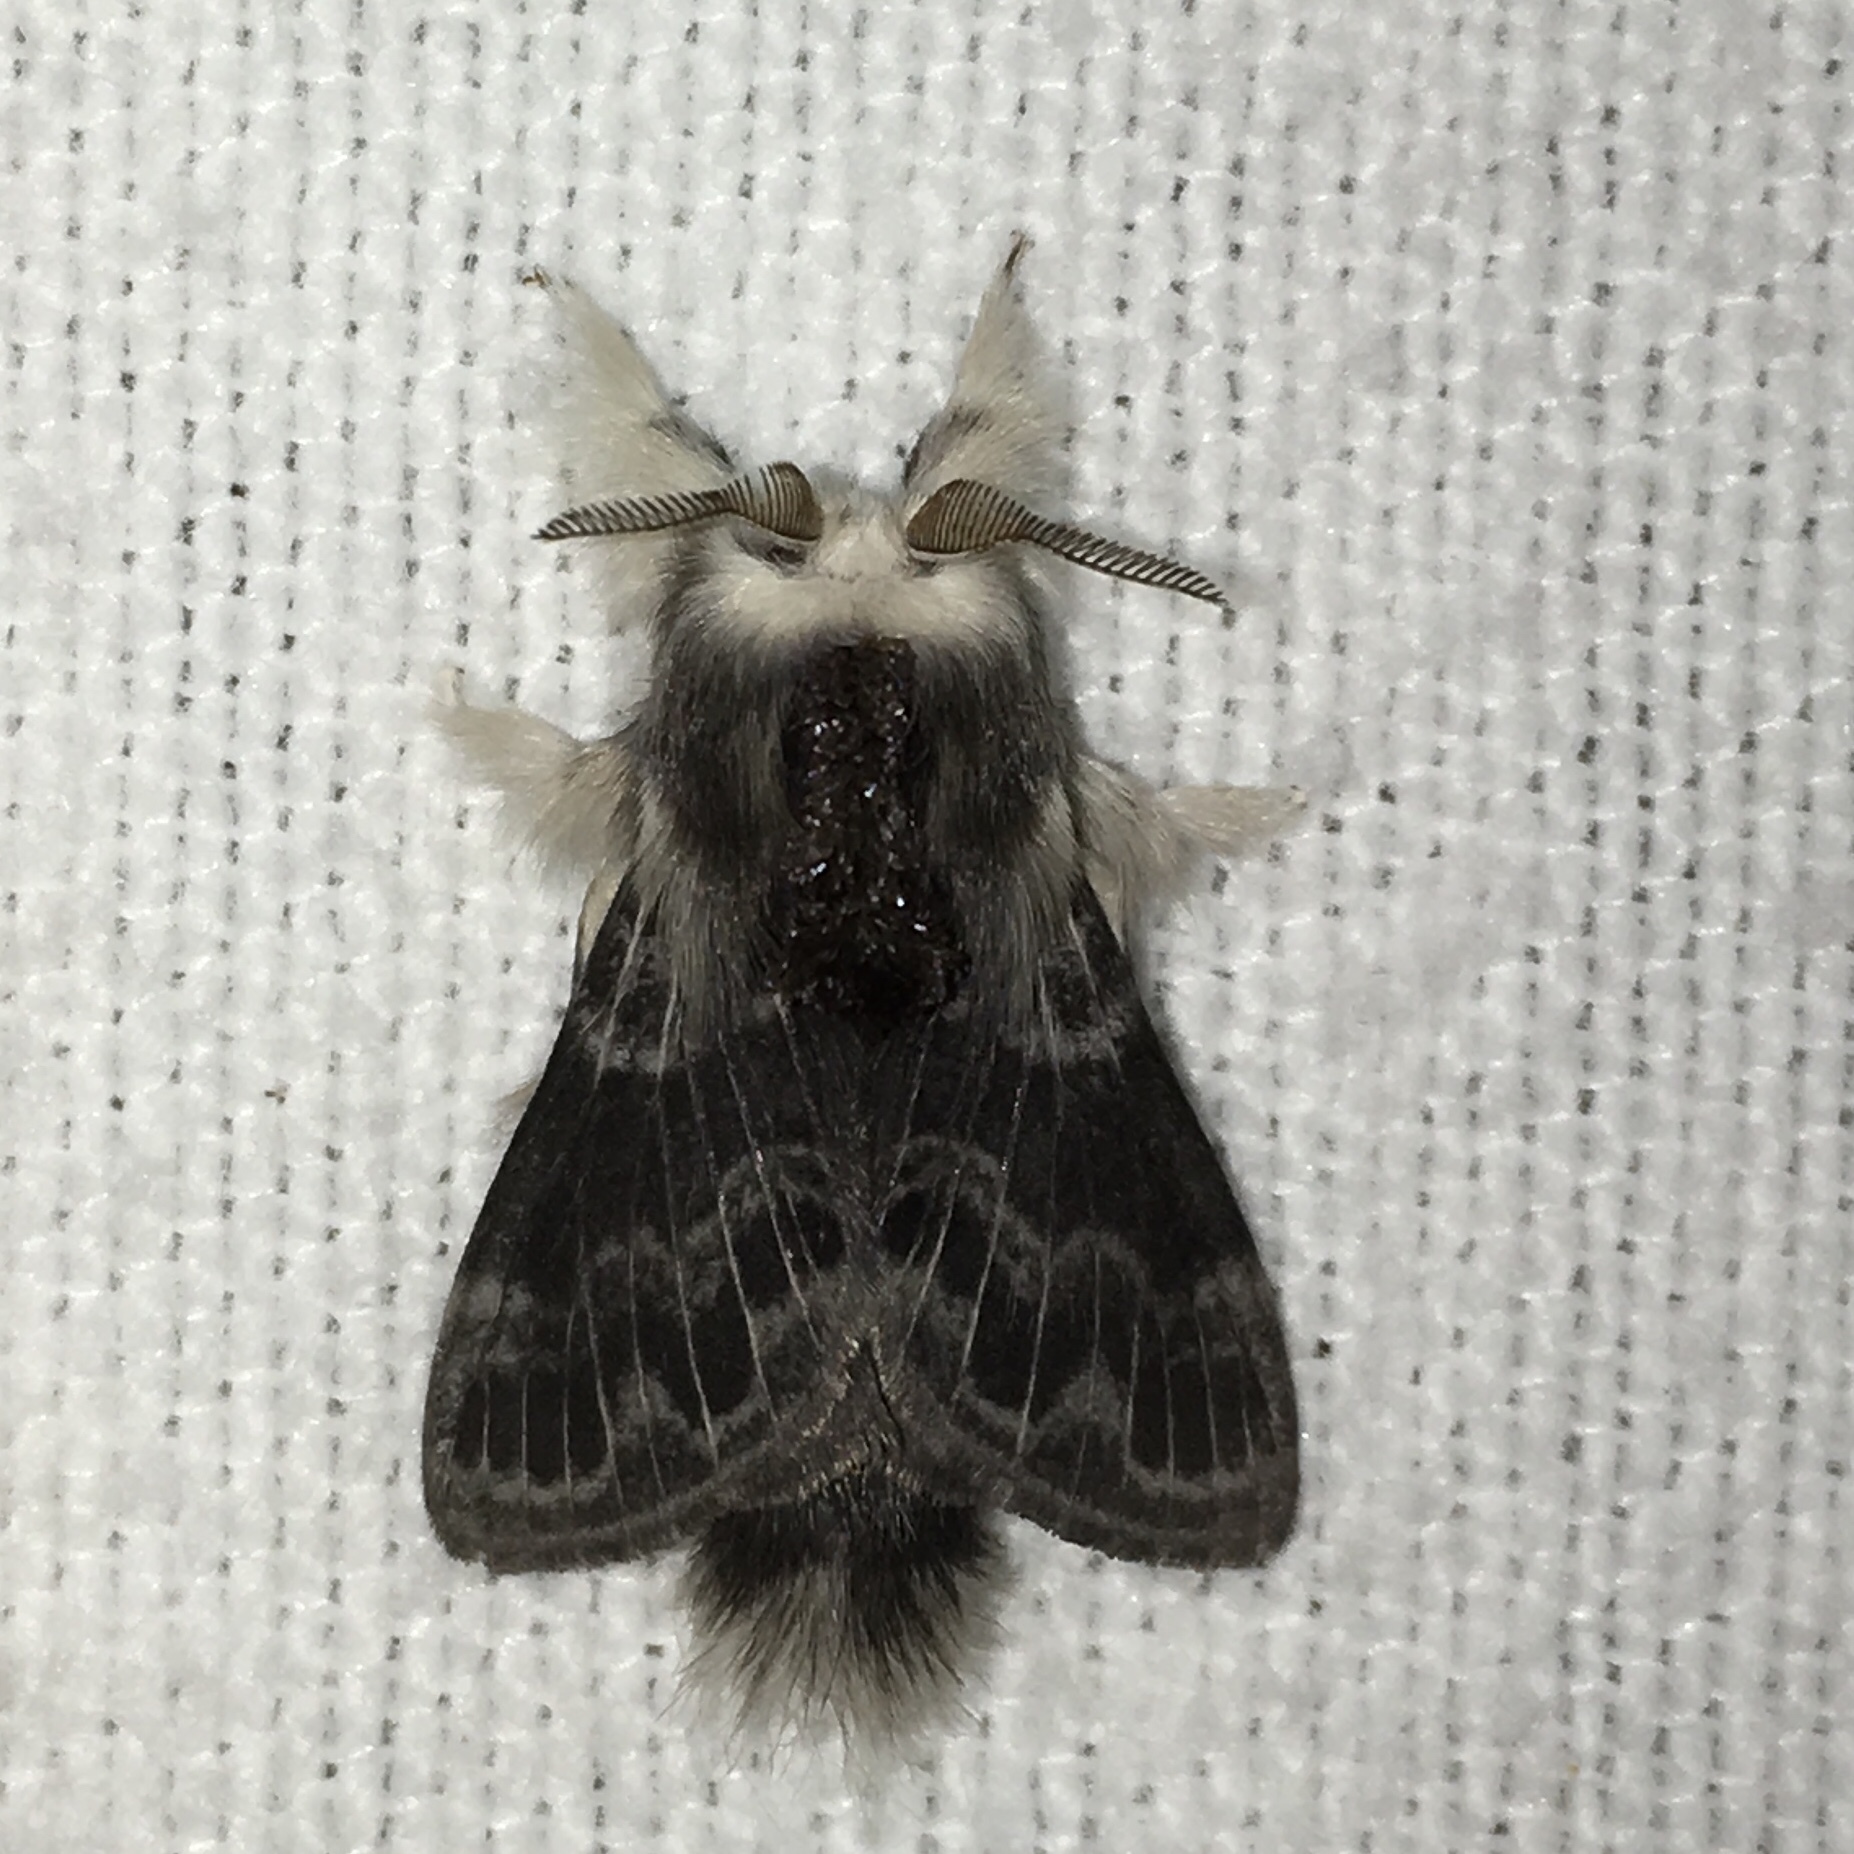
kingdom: Animalia
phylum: Arthropoda
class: Insecta
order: Lepidoptera
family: Lasiocampidae
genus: Tolype
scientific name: Tolype laricis
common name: Larch tolype moth
